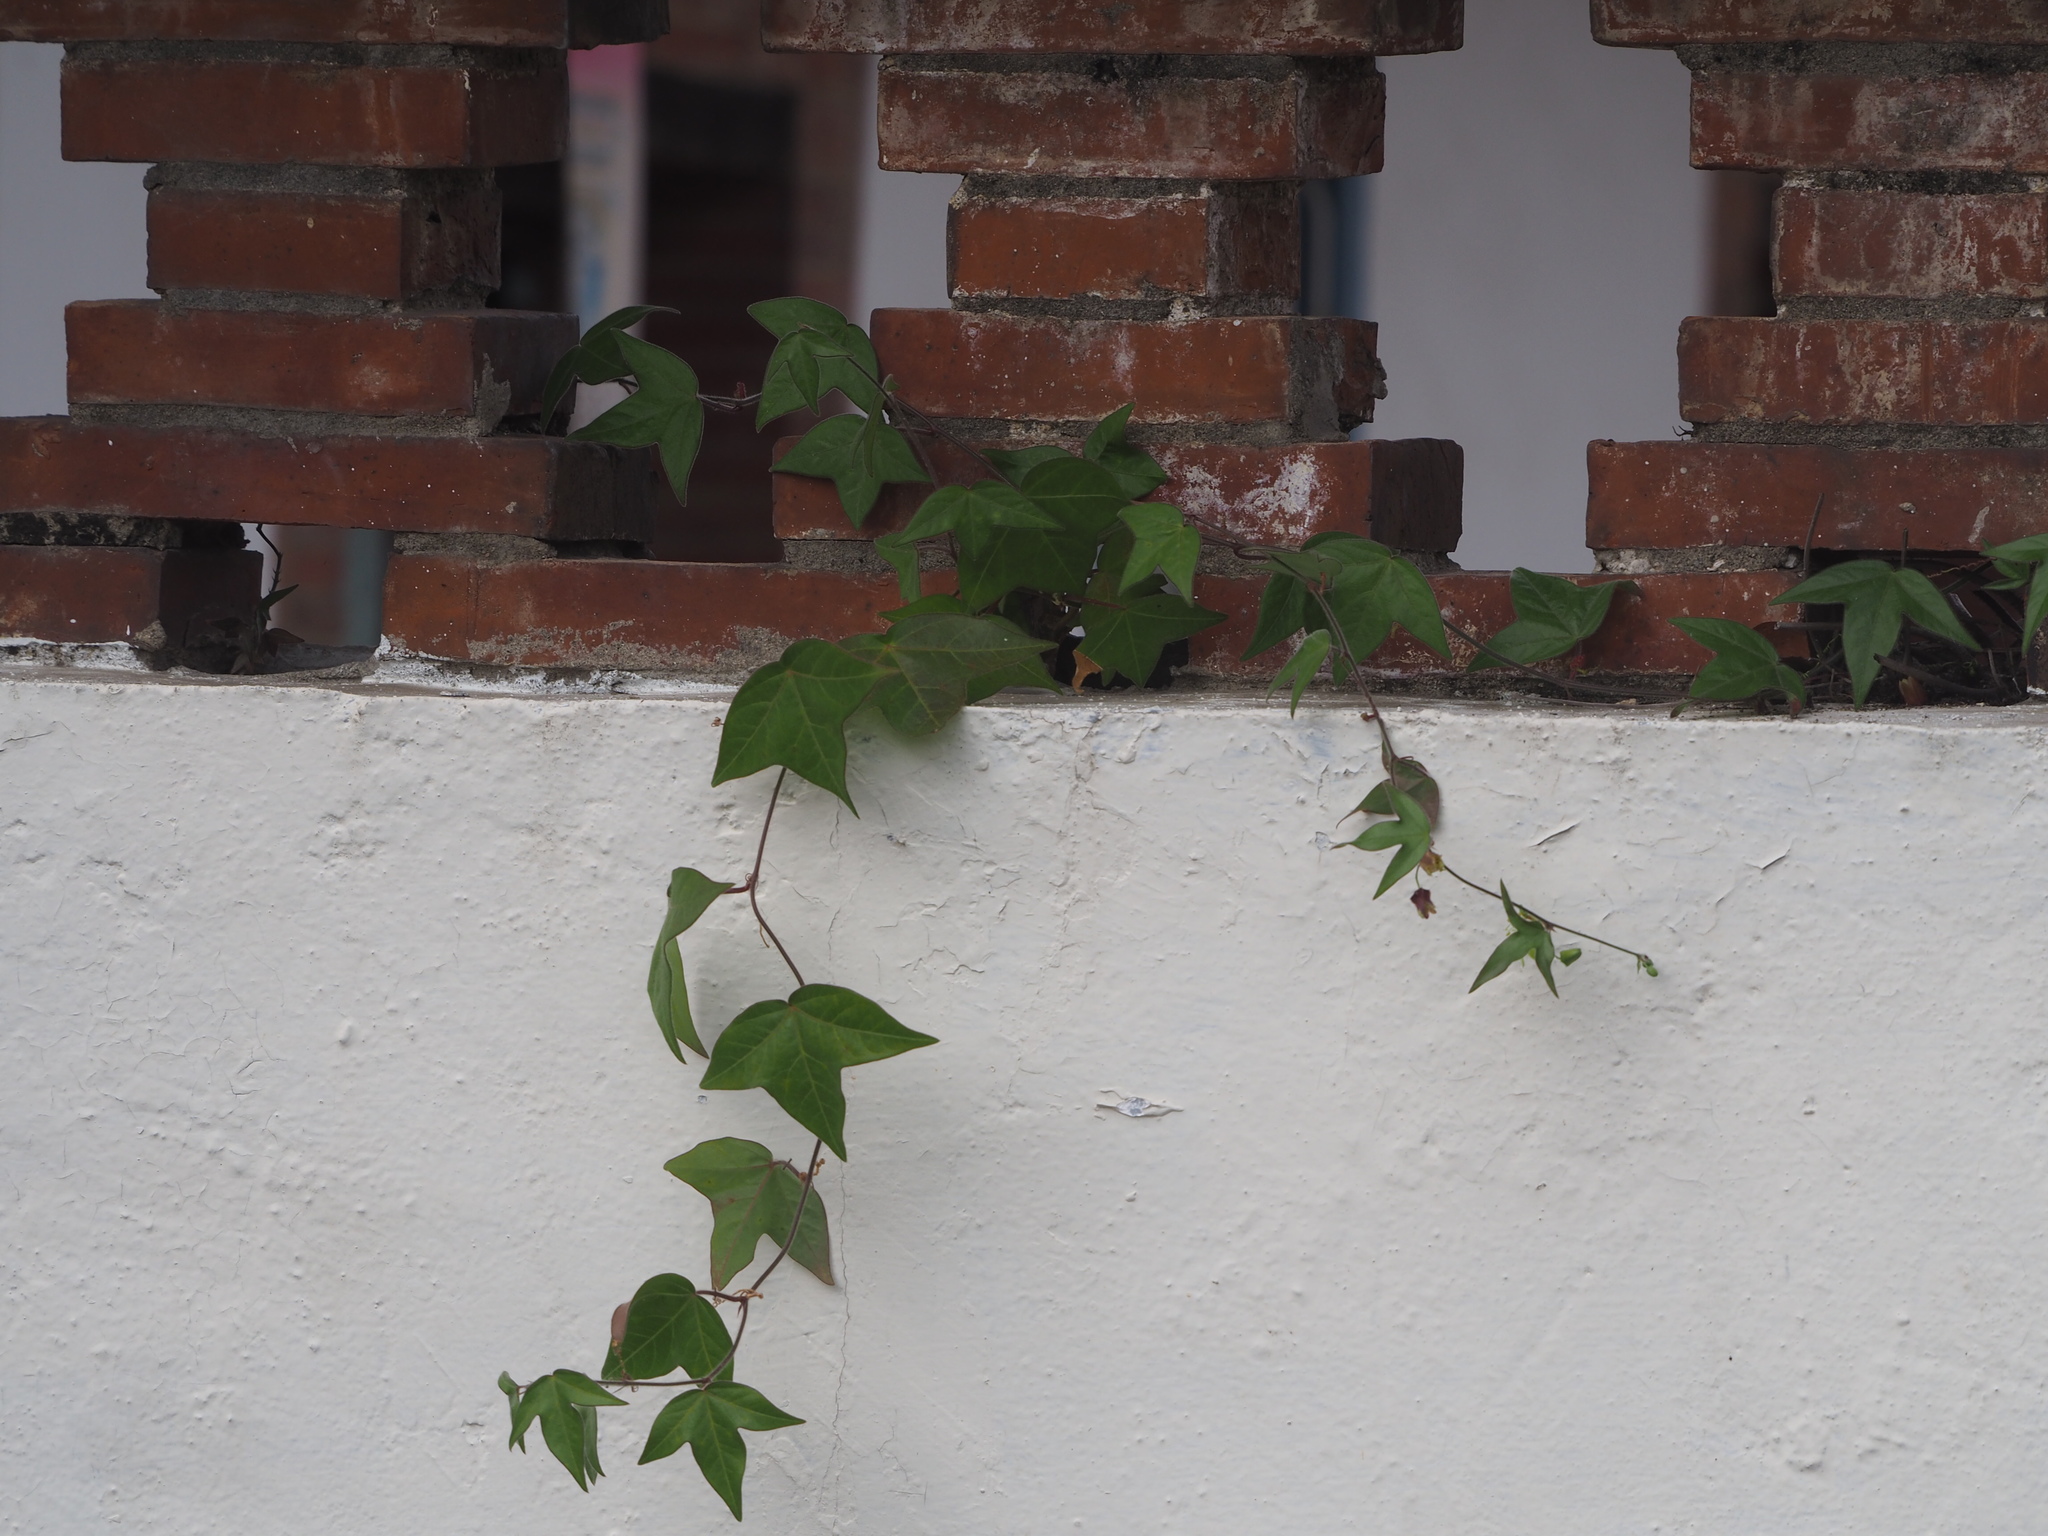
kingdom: Plantae
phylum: Tracheophyta
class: Magnoliopsida
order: Malpighiales
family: Passifloraceae
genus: Passiflora
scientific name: Passiflora suberosa
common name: Wild passionfruit
